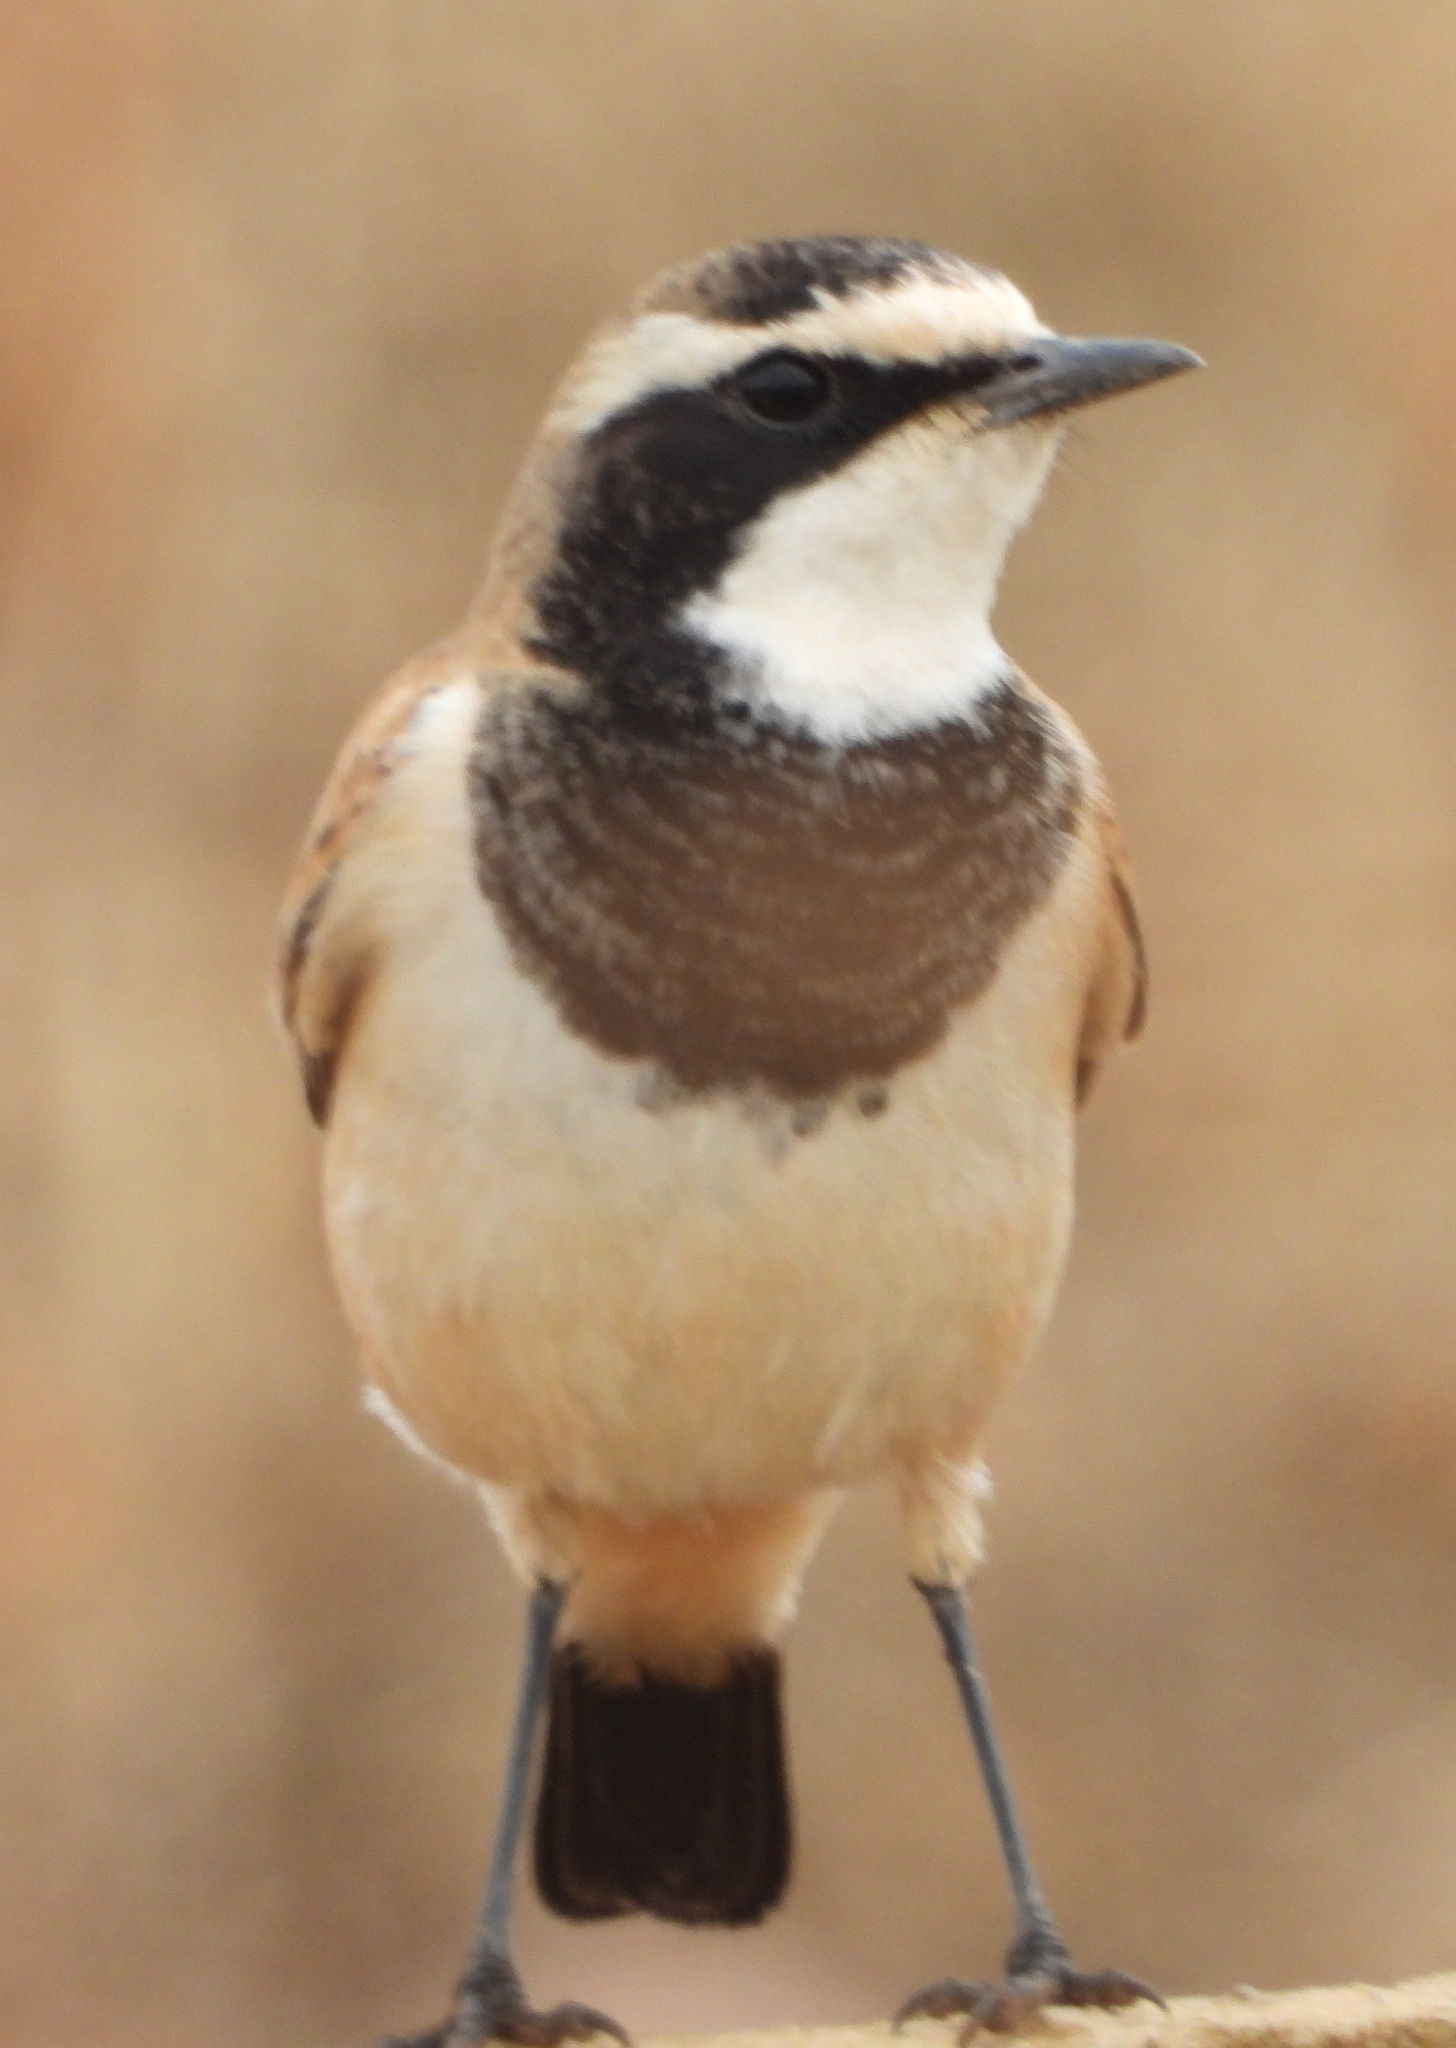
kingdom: Animalia
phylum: Chordata
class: Aves
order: Passeriformes
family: Muscicapidae
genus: Oenanthe
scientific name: Oenanthe pileata
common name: Capped wheatear
